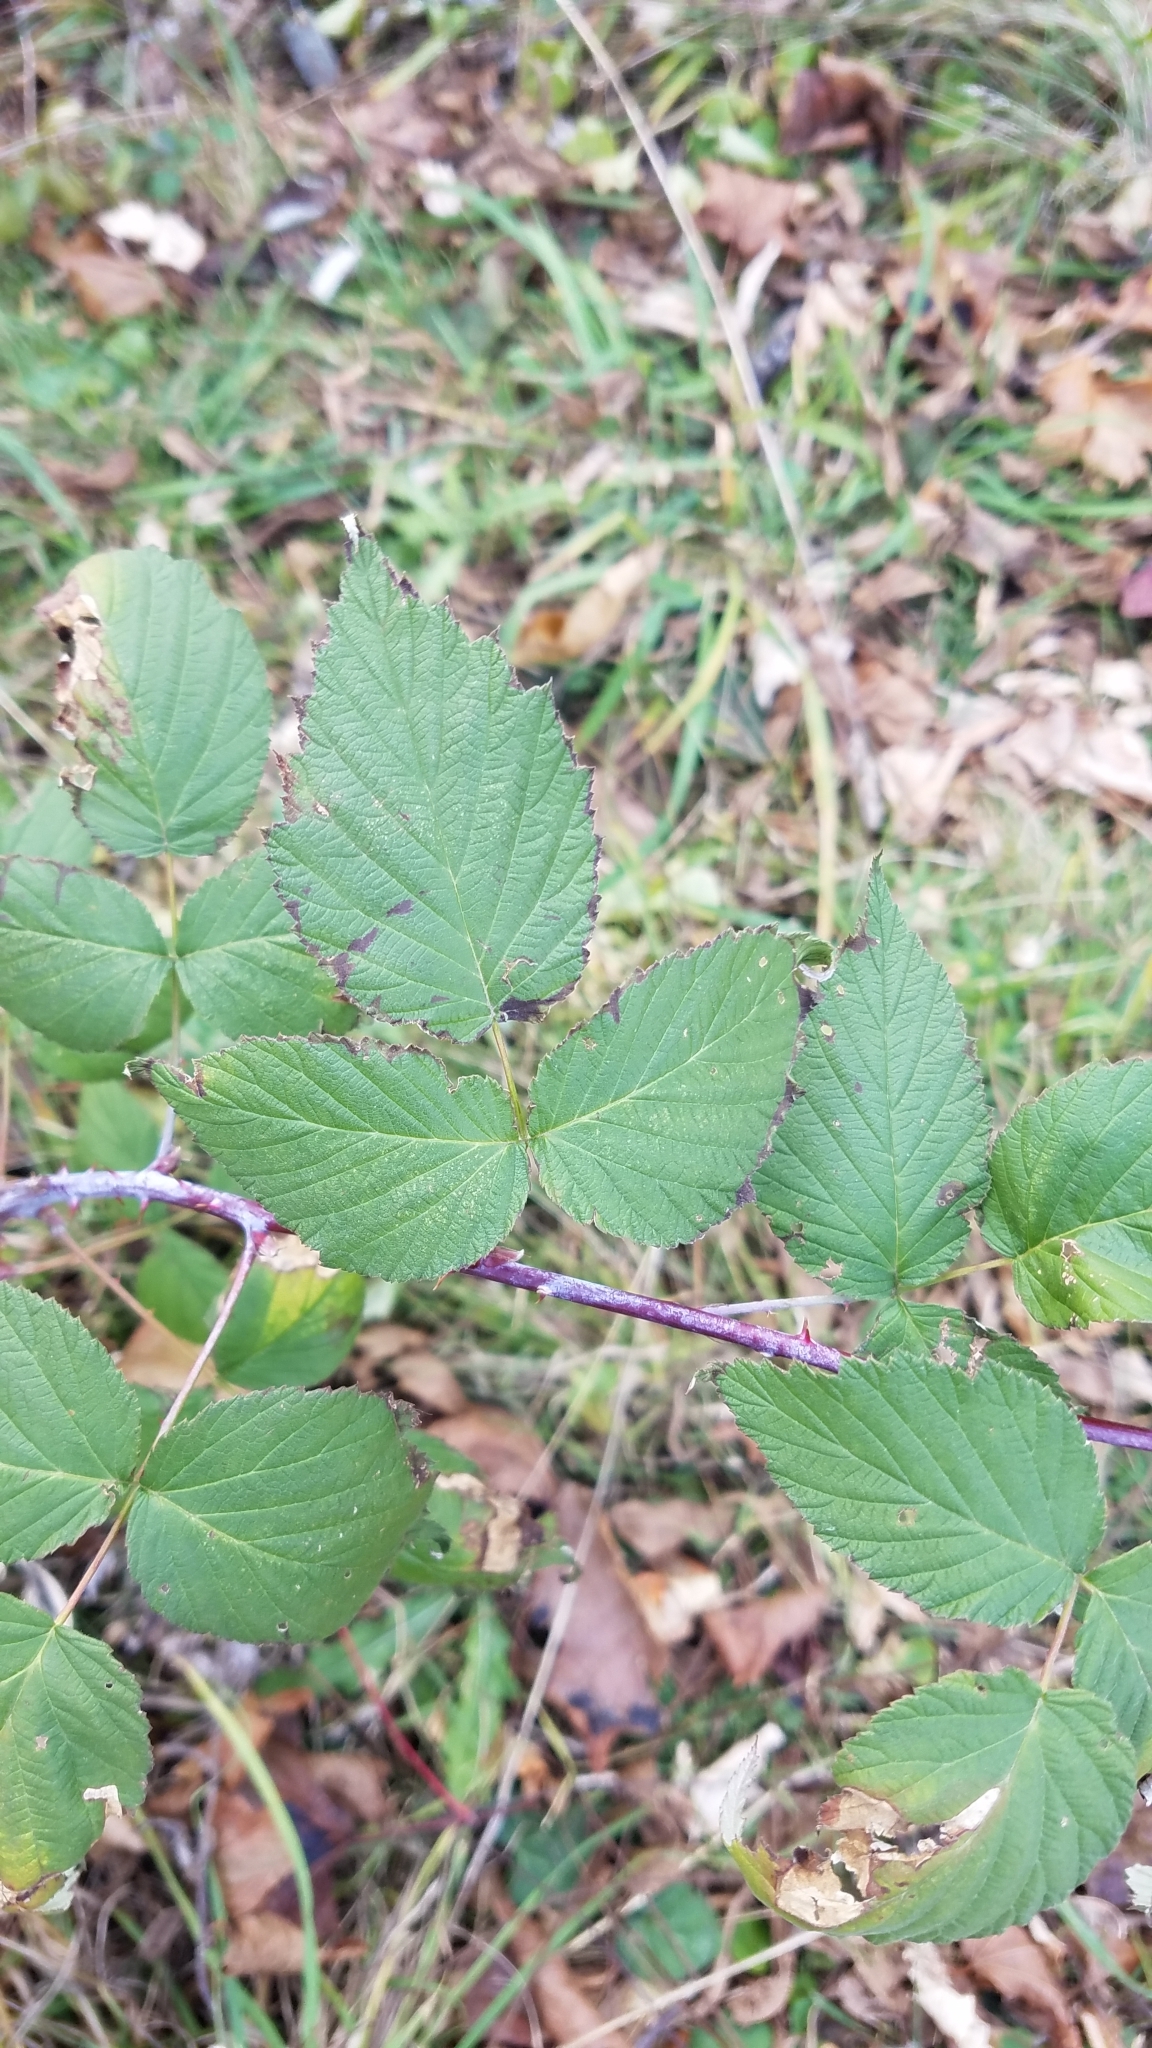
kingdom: Plantae
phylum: Tracheophyta
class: Magnoliopsida
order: Rosales
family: Rosaceae
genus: Rubus
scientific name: Rubus occidentalis
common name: Black raspberry
